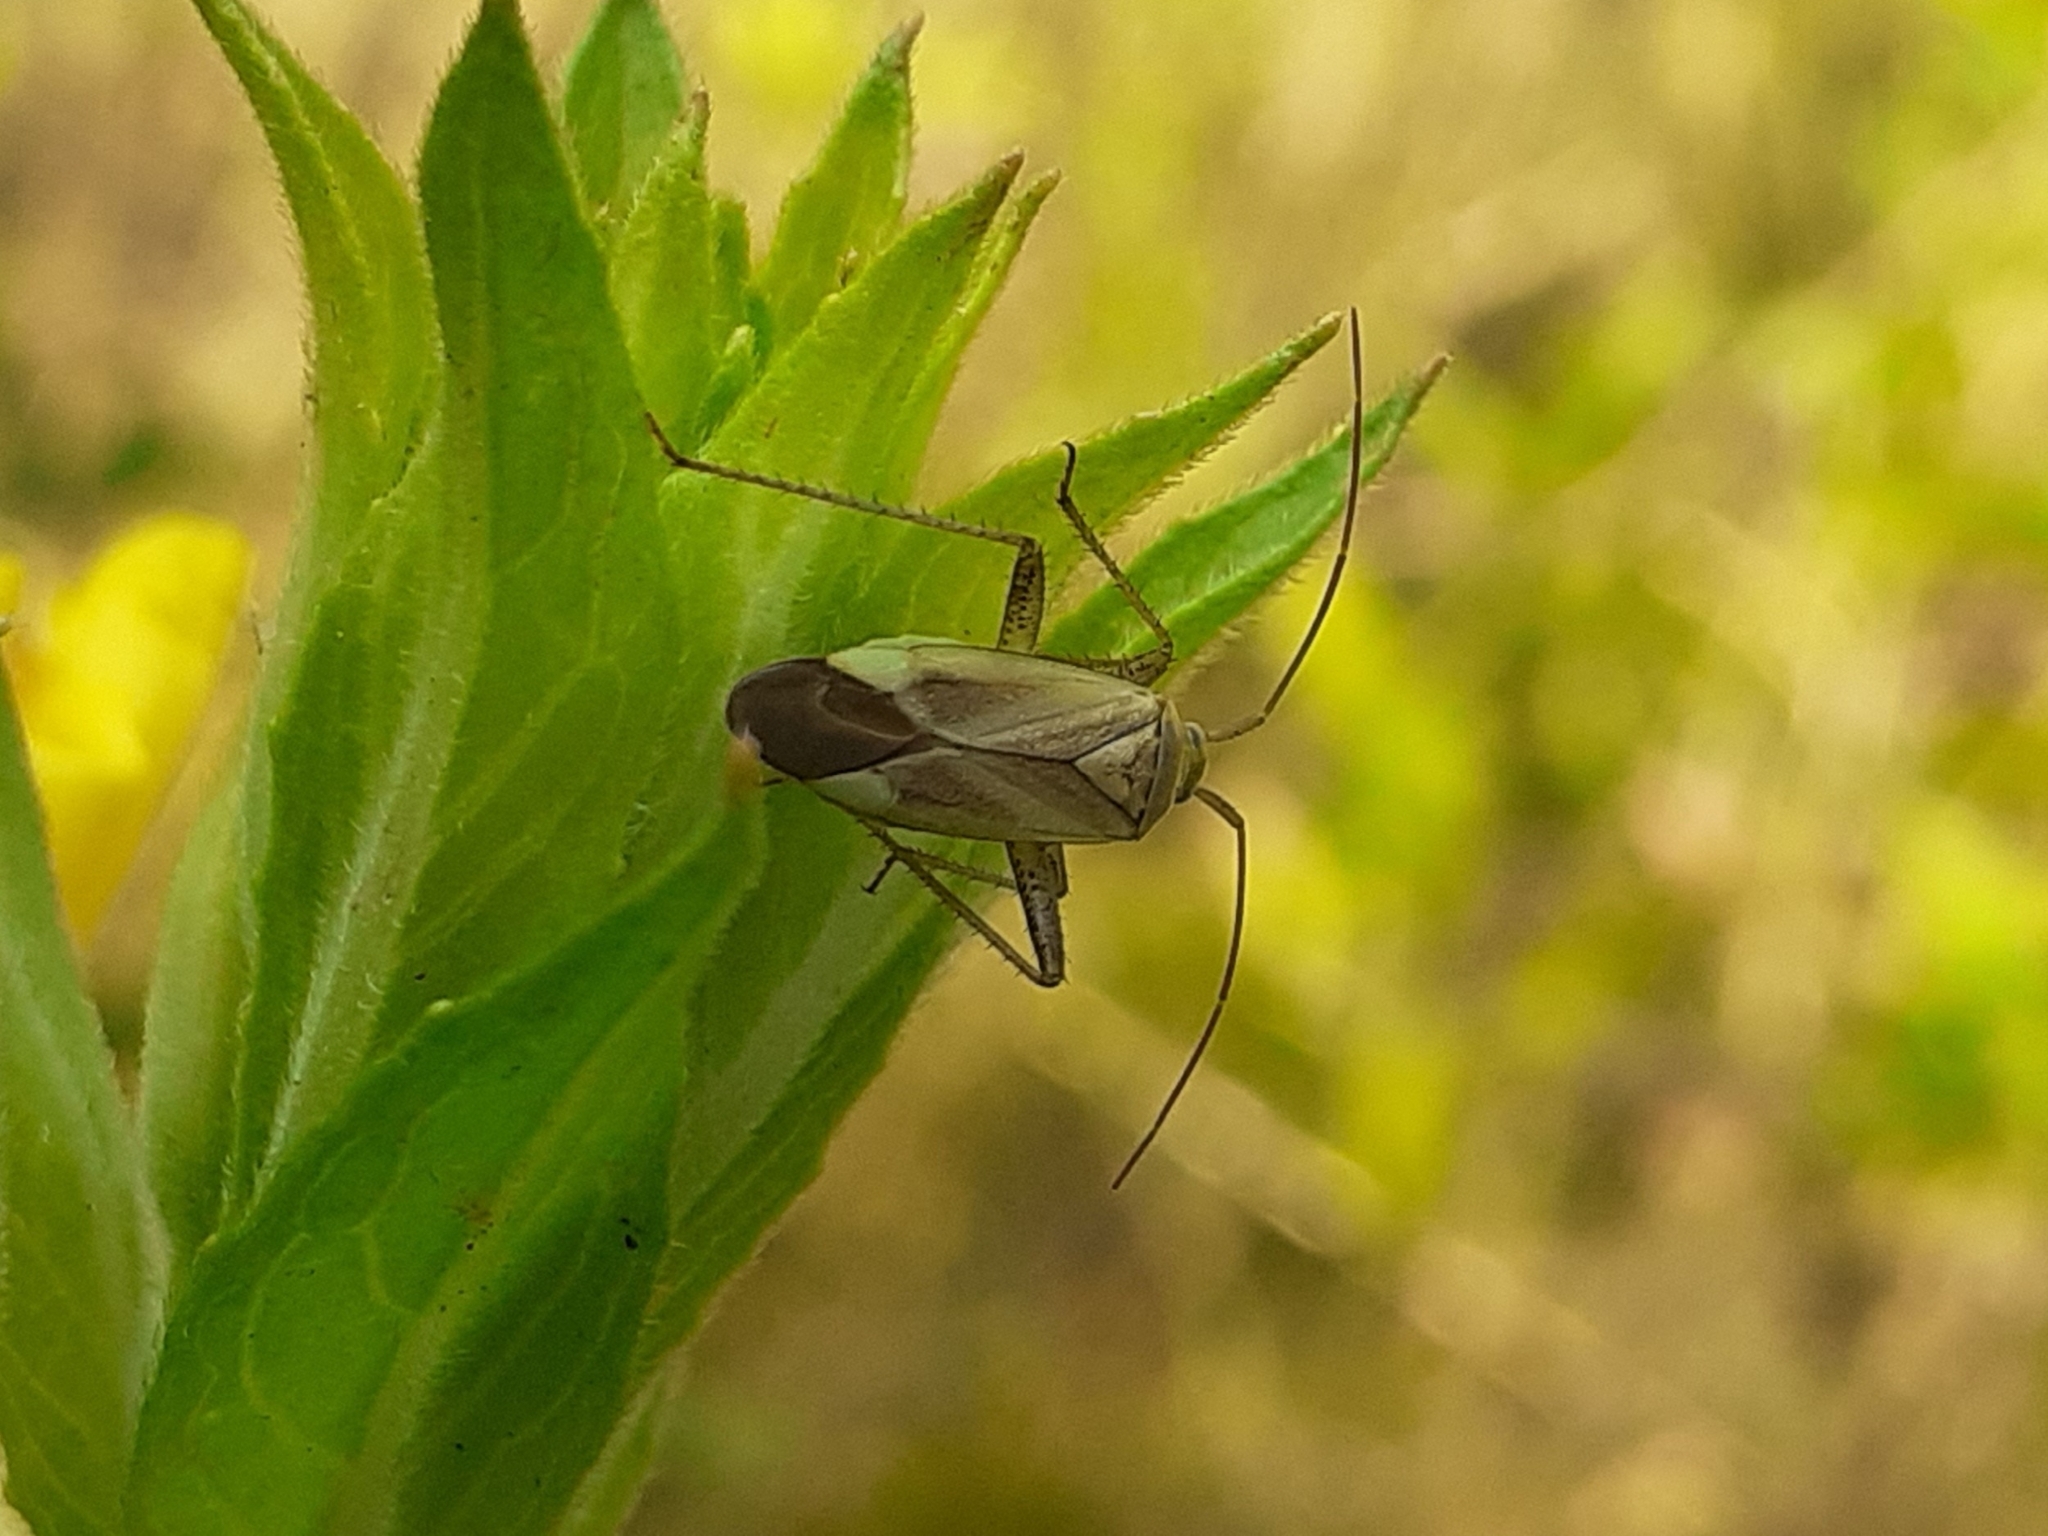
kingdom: Animalia
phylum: Arthropoda
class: Insecta
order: Hemiptera
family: Miridae
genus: Adelphocoris
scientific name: Adelphocoris lineolatus
